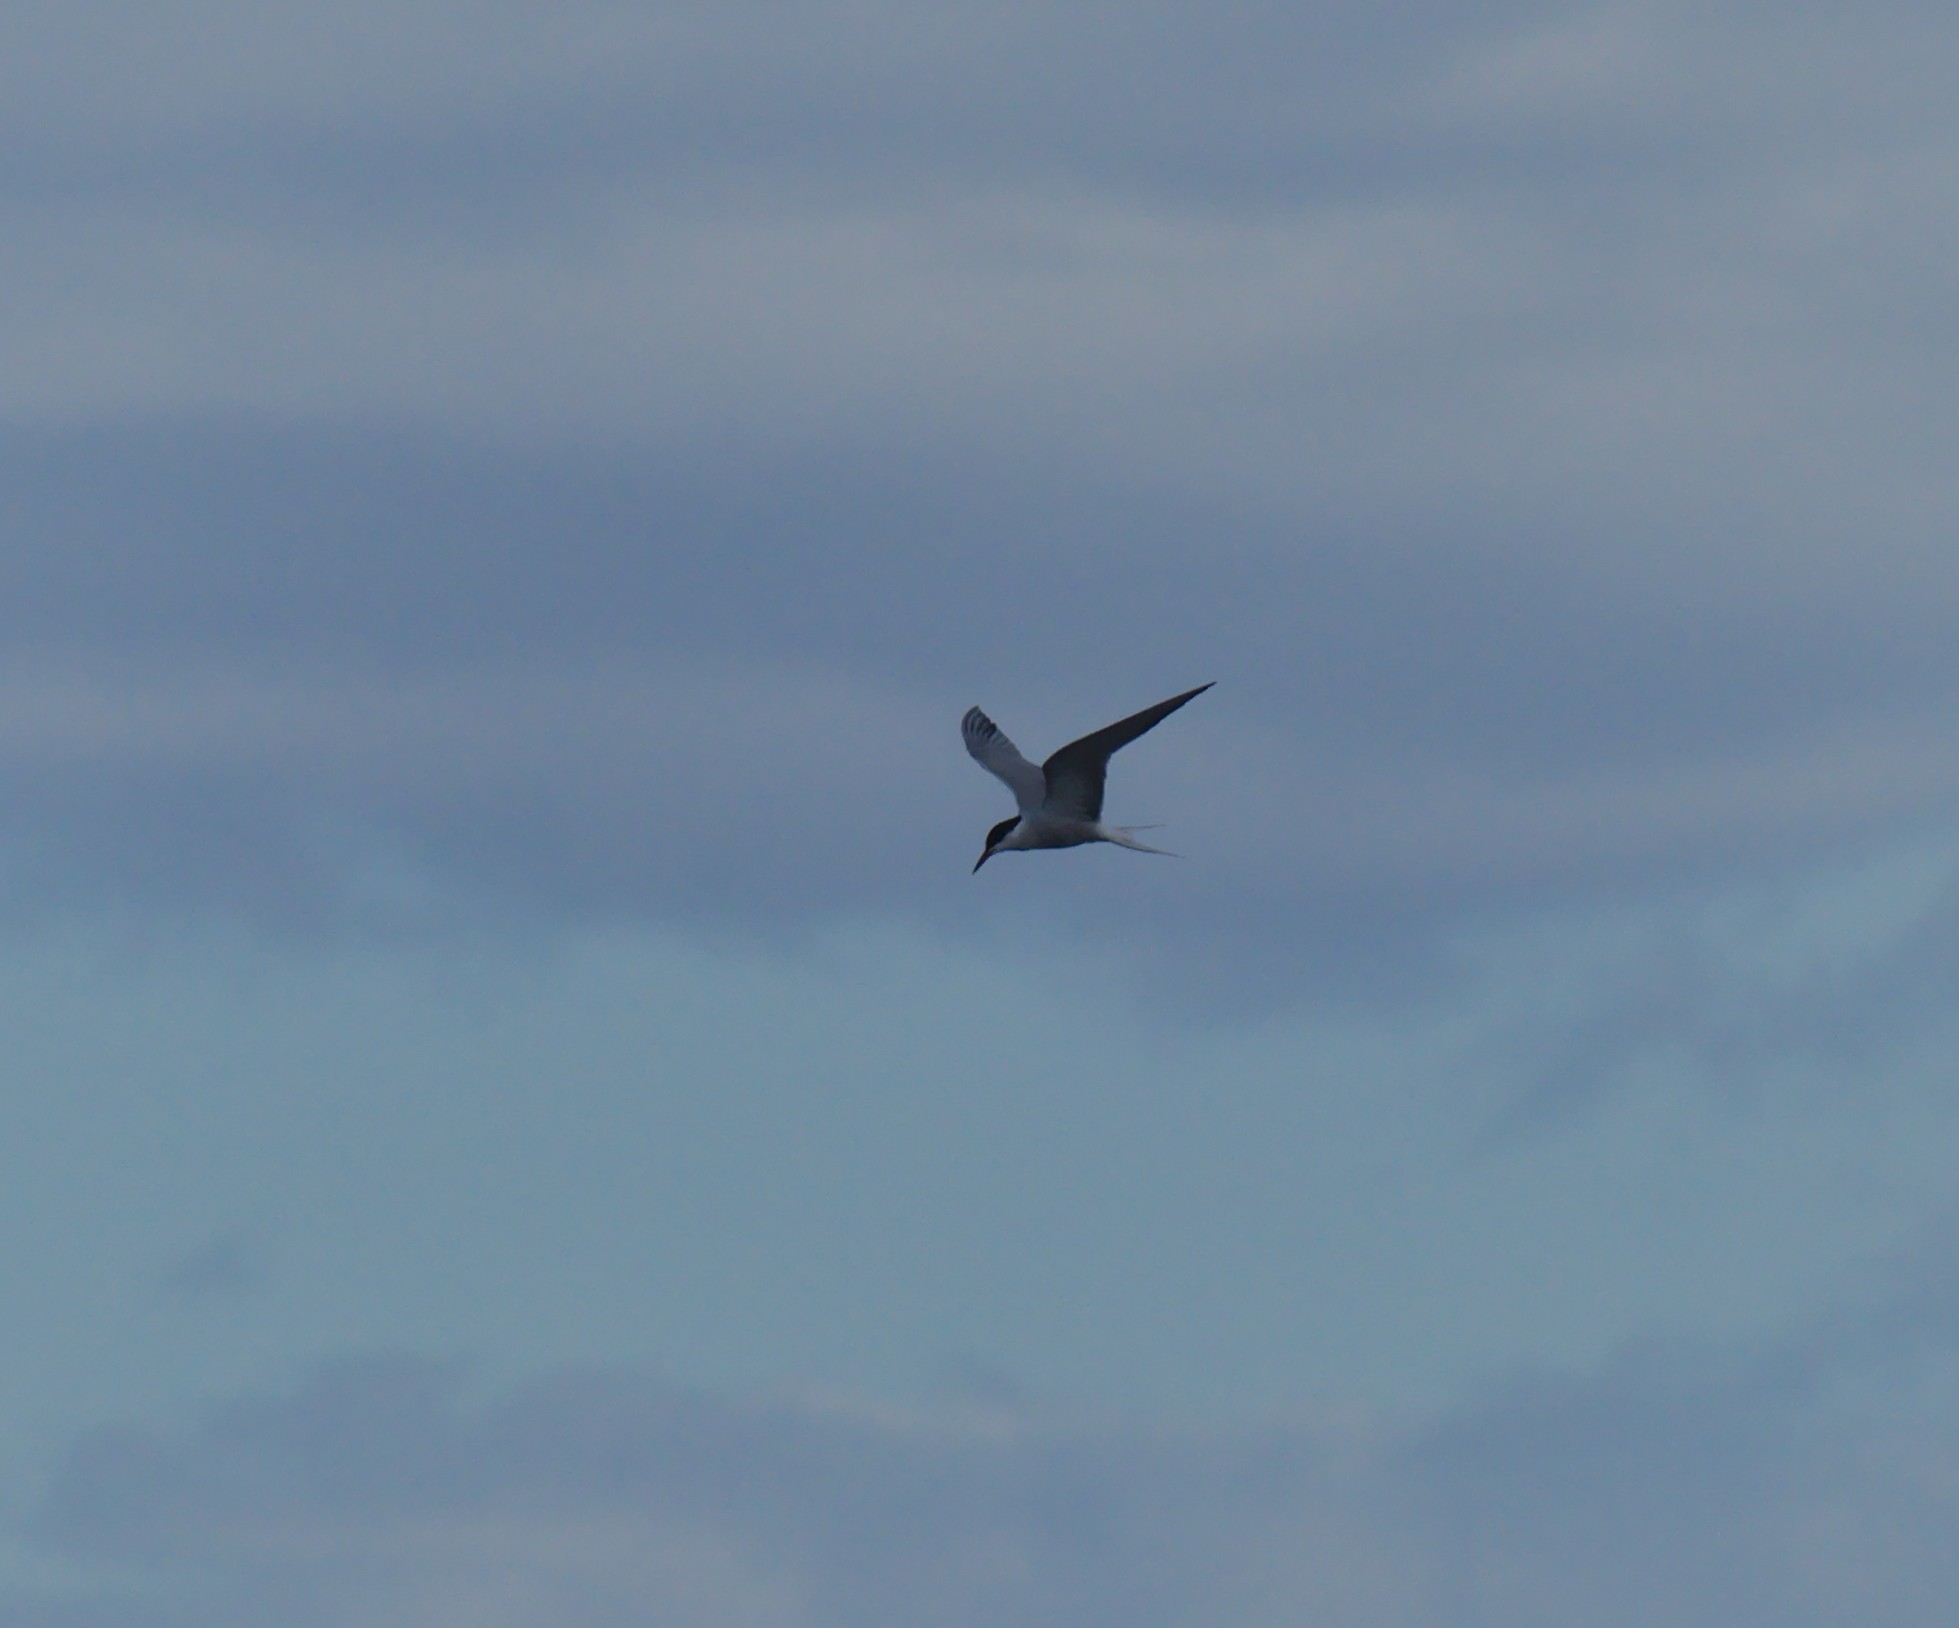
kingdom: Animalia
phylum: Chordata
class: Aves
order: Charadriiformes
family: Laridae
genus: Sterna
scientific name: Sterna hirundo
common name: Common tern
